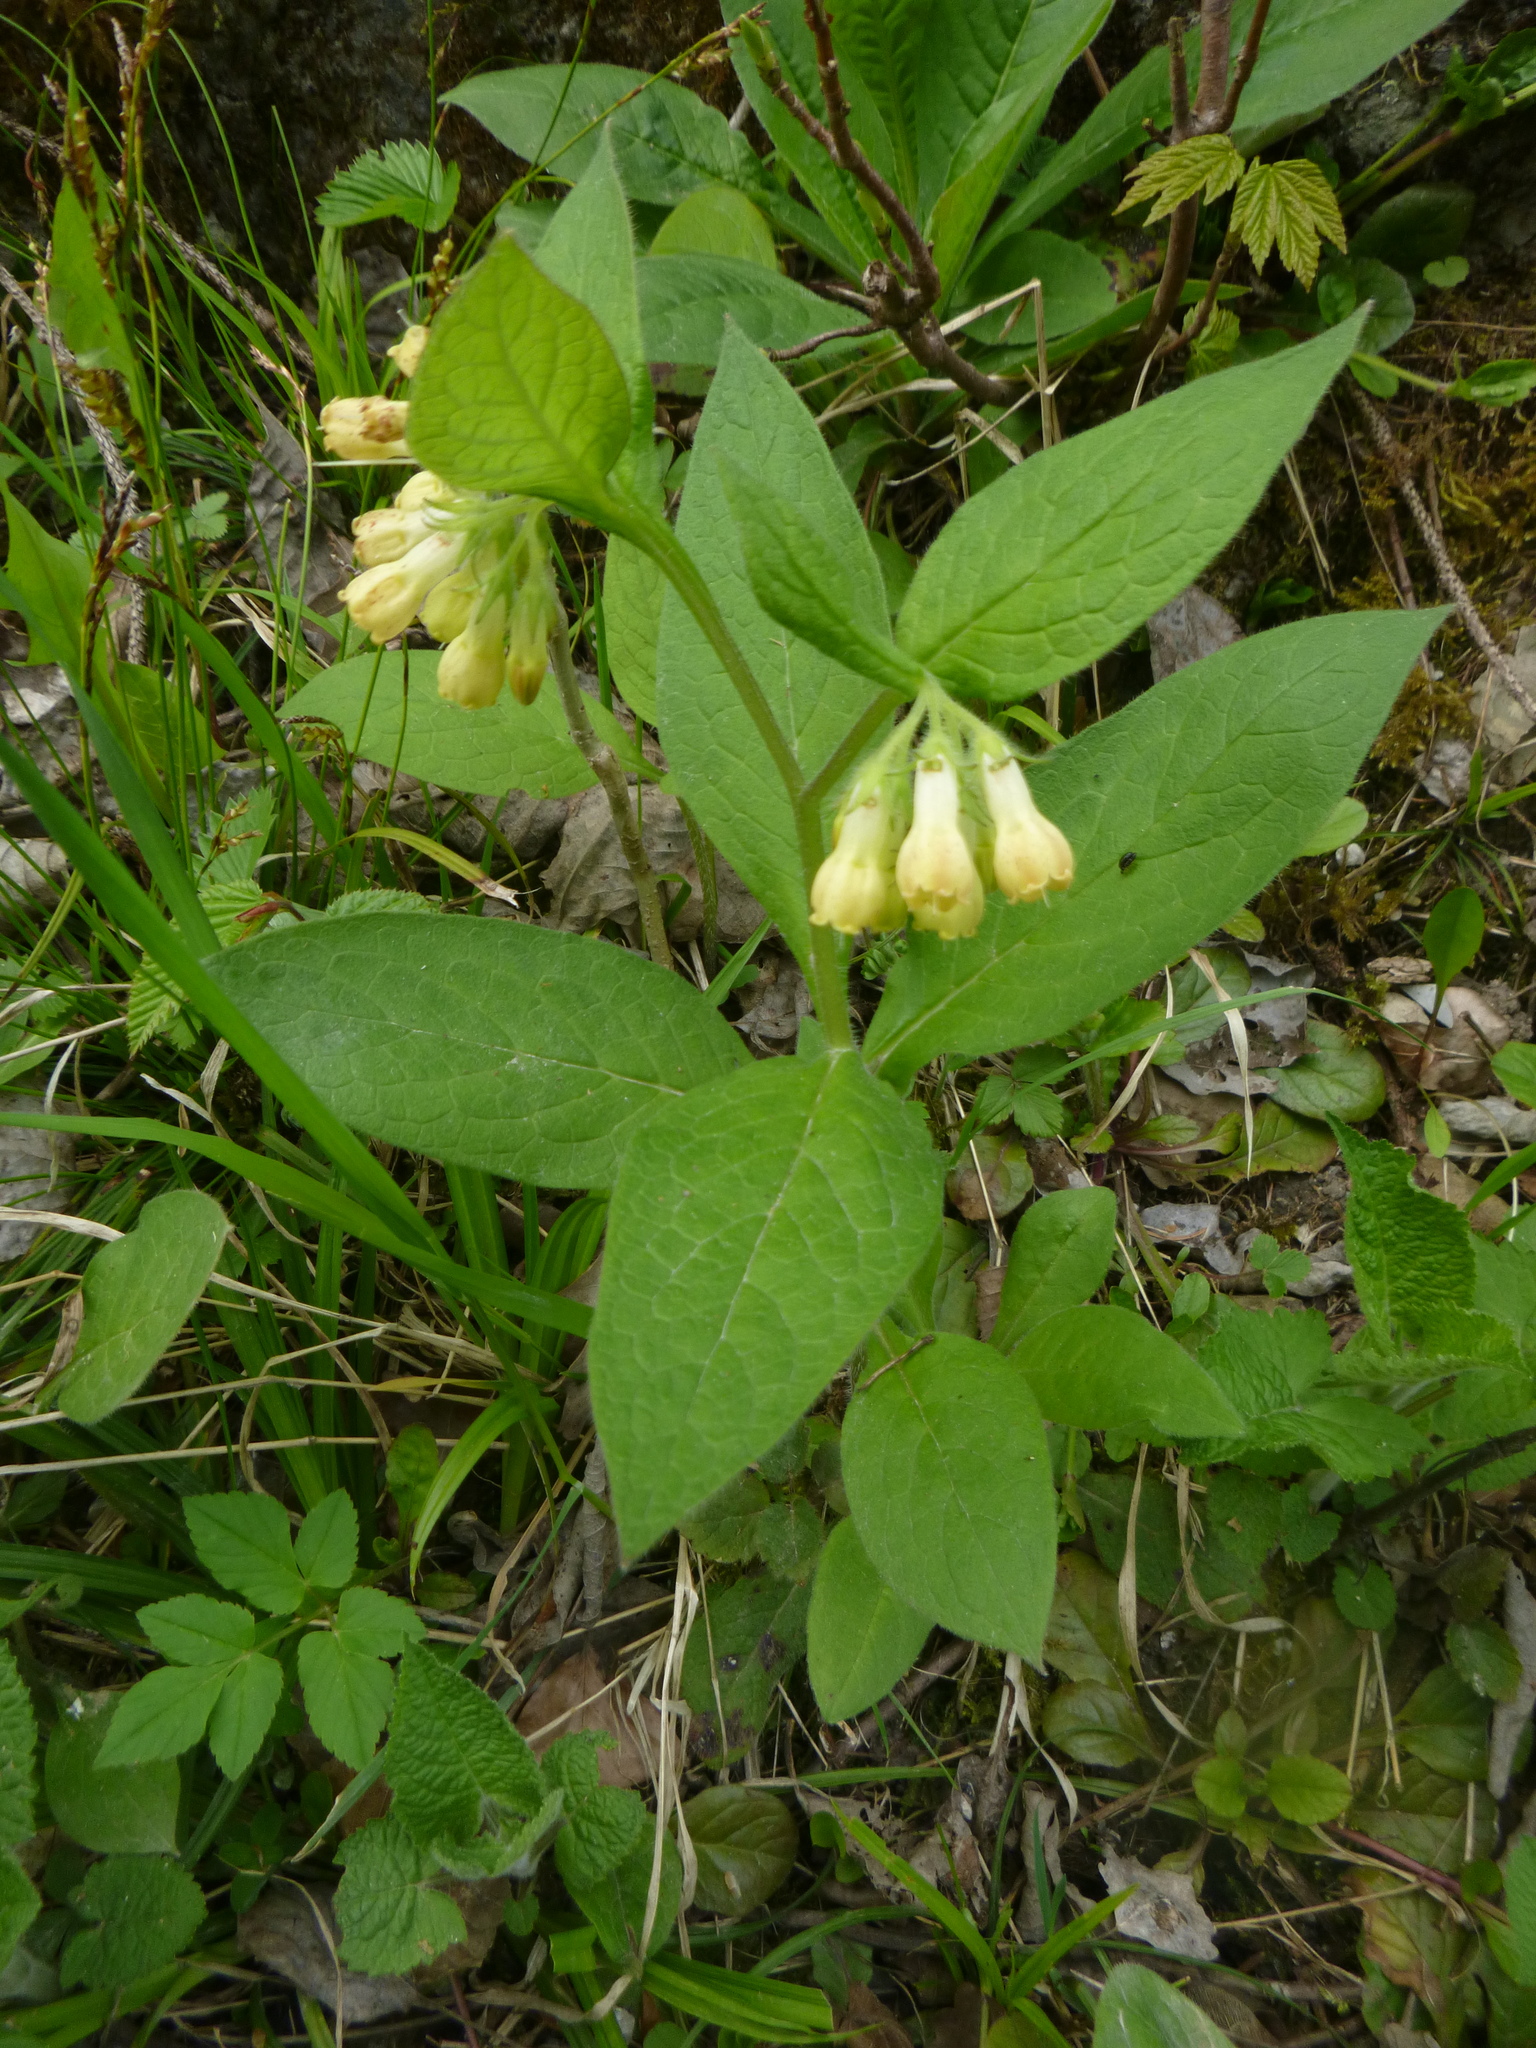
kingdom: Plantae
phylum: Tracheophyta
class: Magnoliopsida
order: Boraginales
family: Boraginaceae
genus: Symphytum
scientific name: Symphytum tuberosum
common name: Tuberous comfrey
